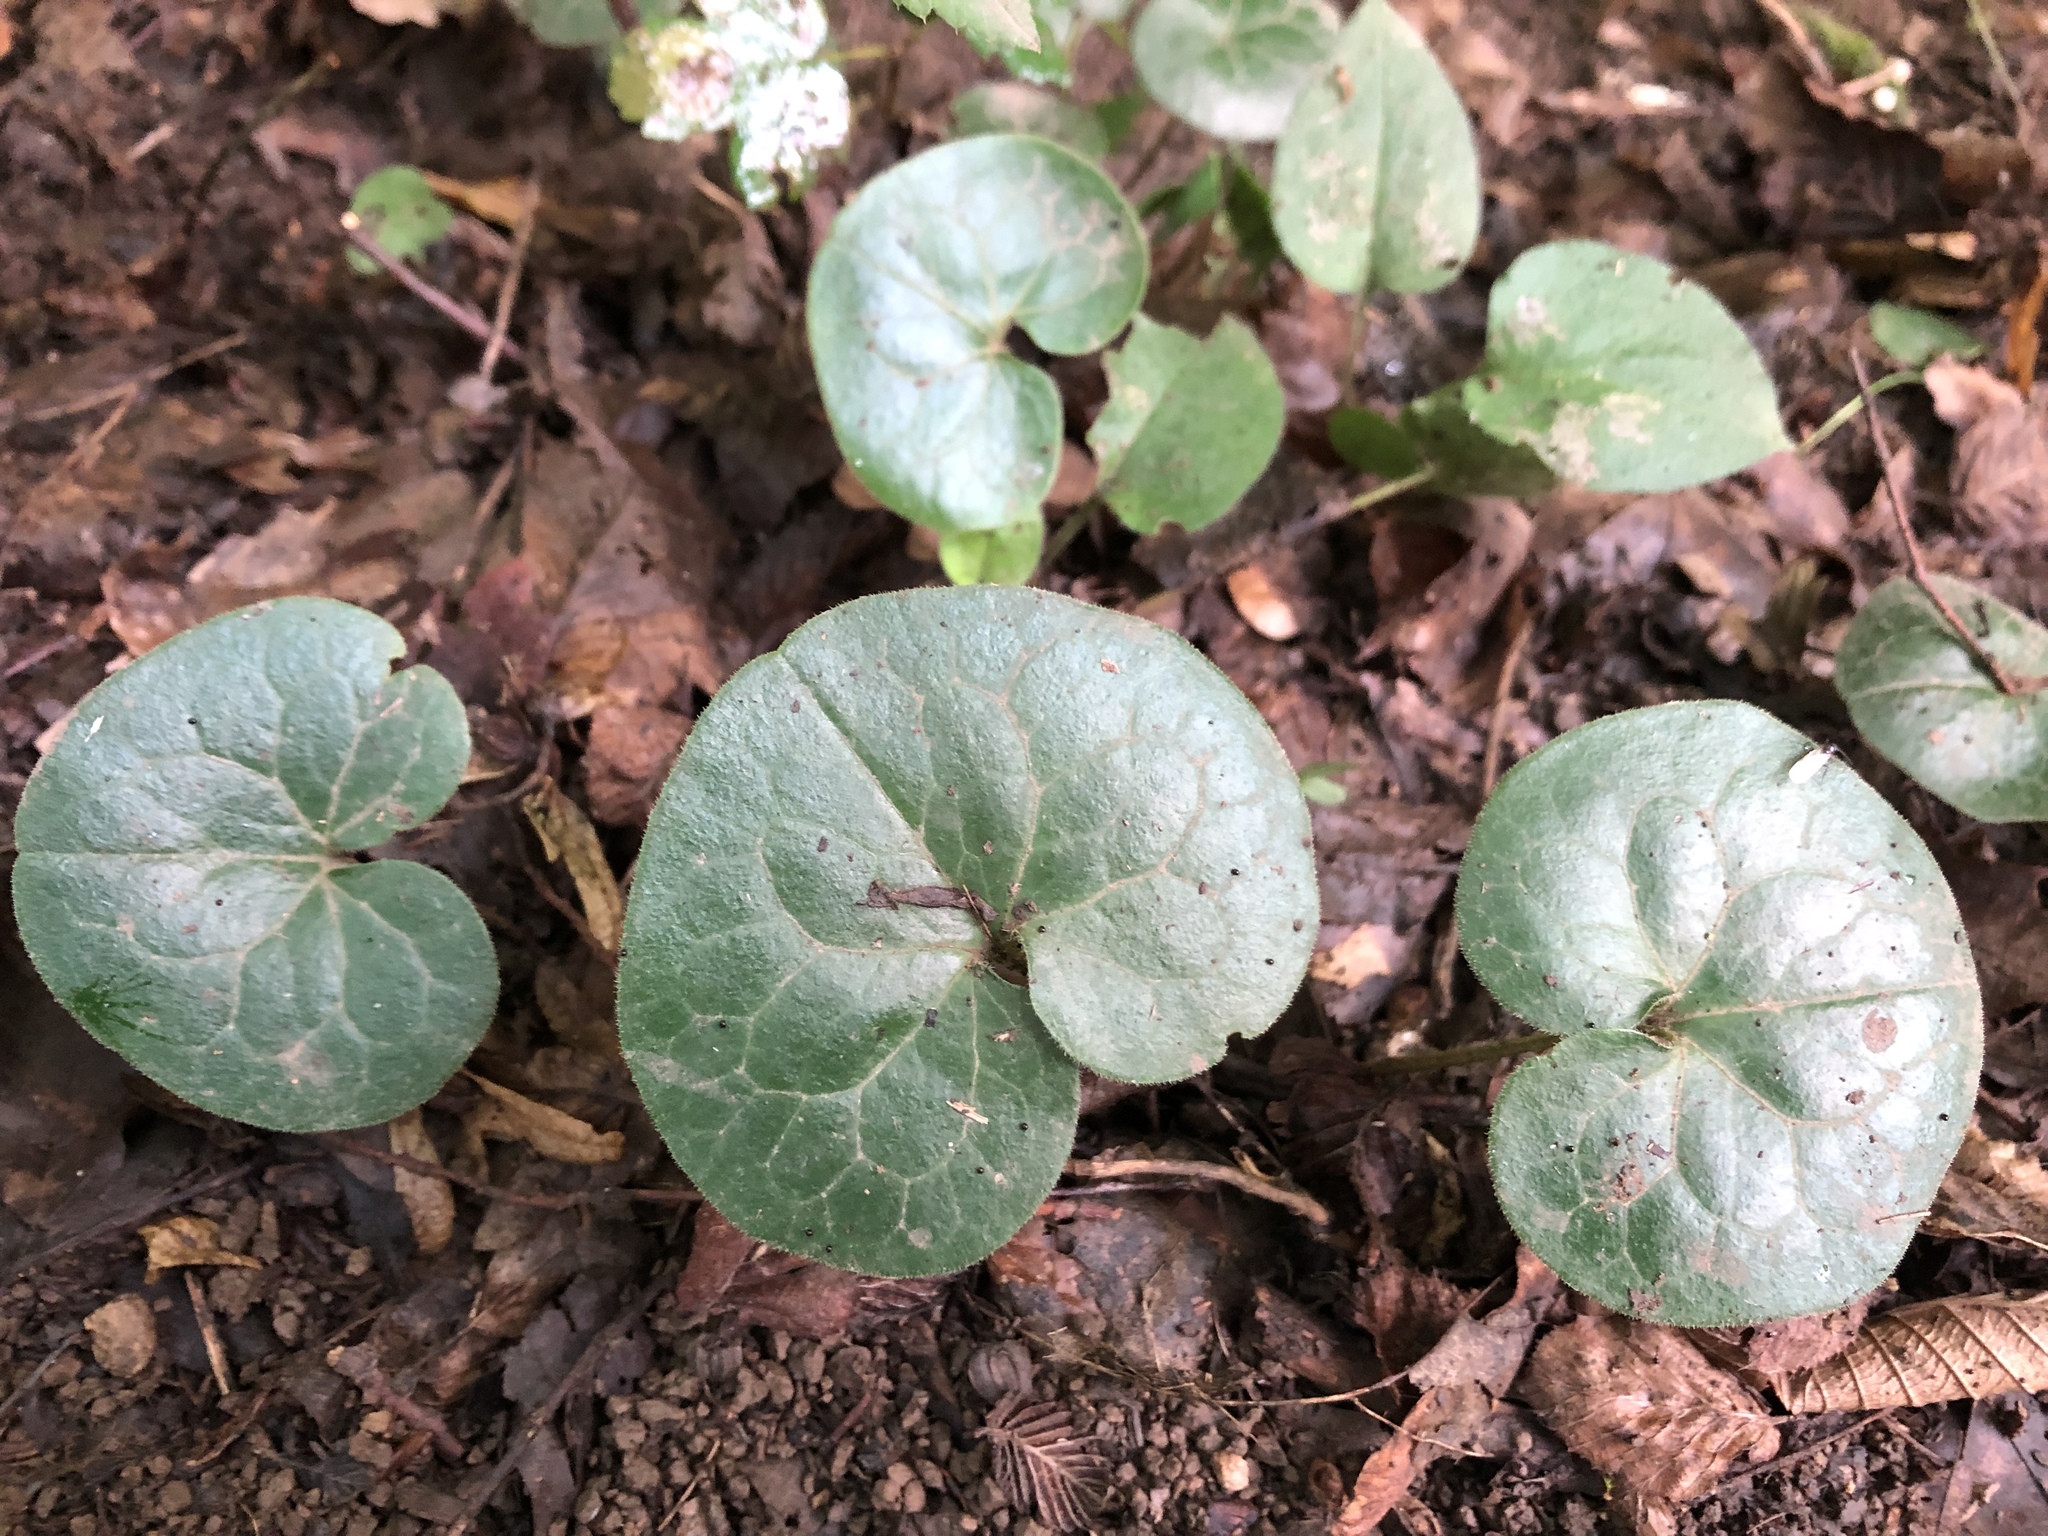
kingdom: Plantae
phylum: Tracheophyta
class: Magnoliopsida
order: Piperales
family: Aristolochiaceae
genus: Asarum
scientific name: Asarum europaeum
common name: Asarabacca
